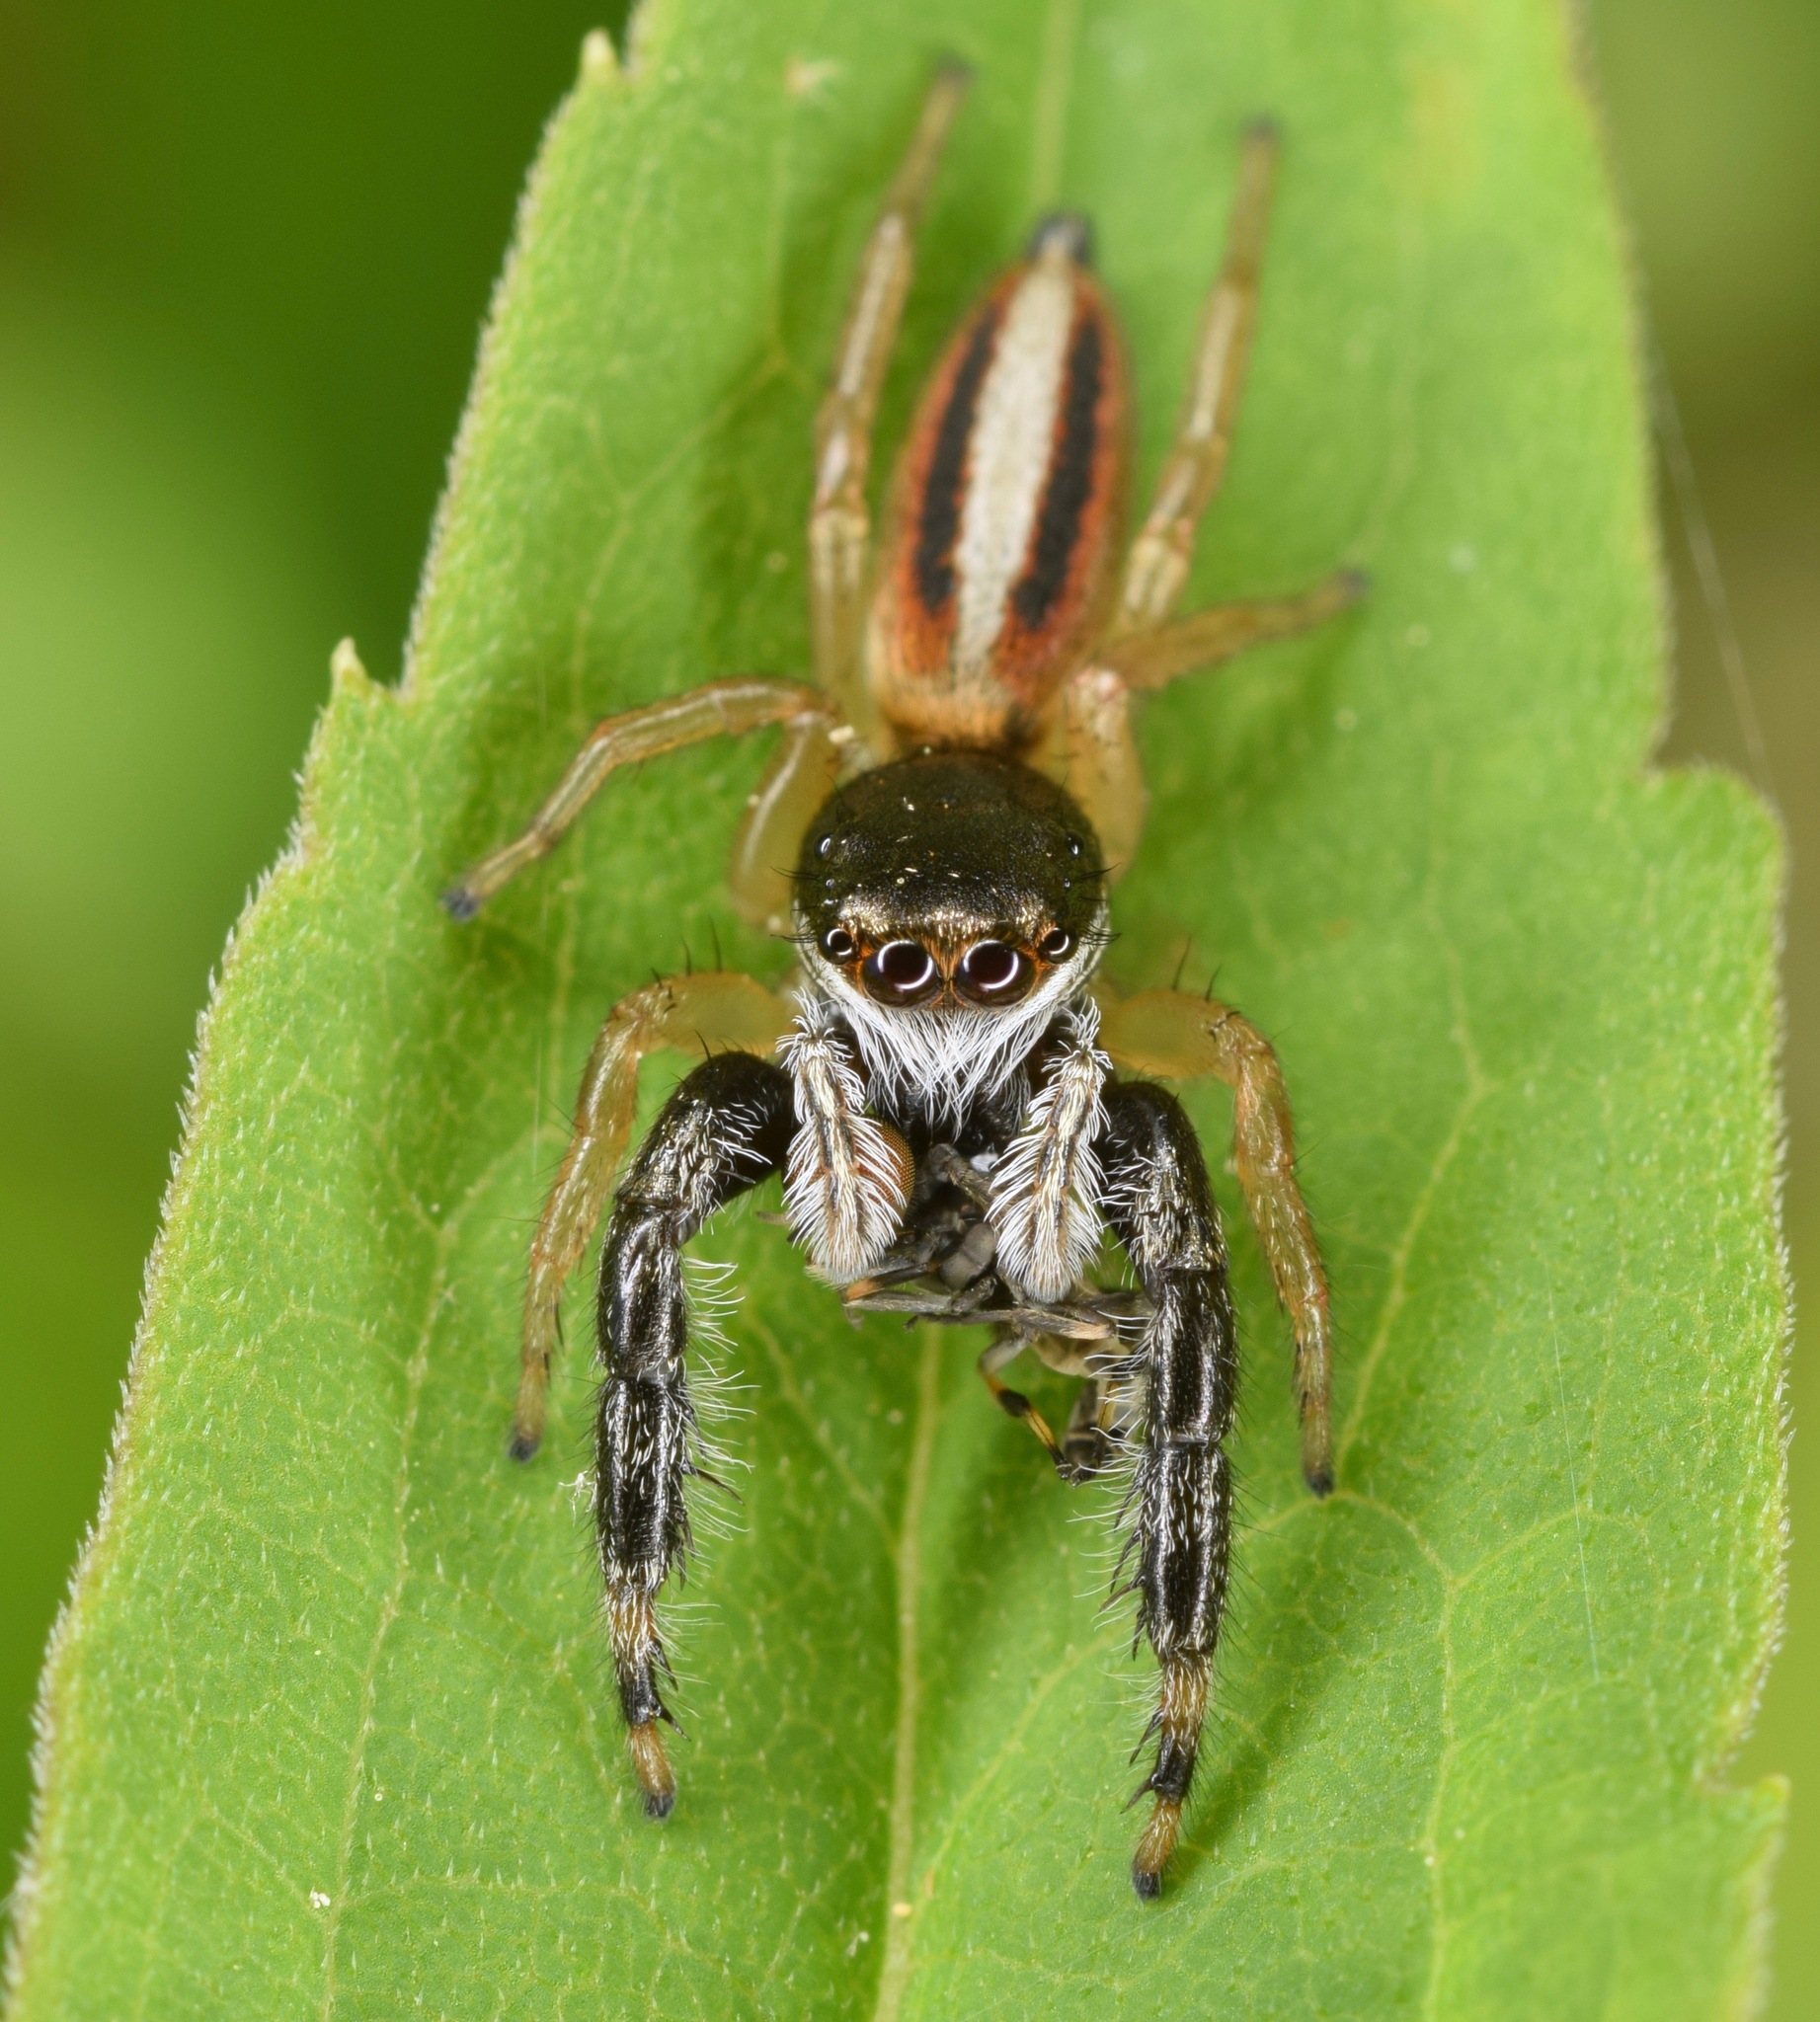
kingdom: Animalia
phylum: Arthropoda
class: Arachnida
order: Araneae
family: Salticidae
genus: Marpissa
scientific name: Marpissa formosa
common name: Short-bellied slender jumping spider
